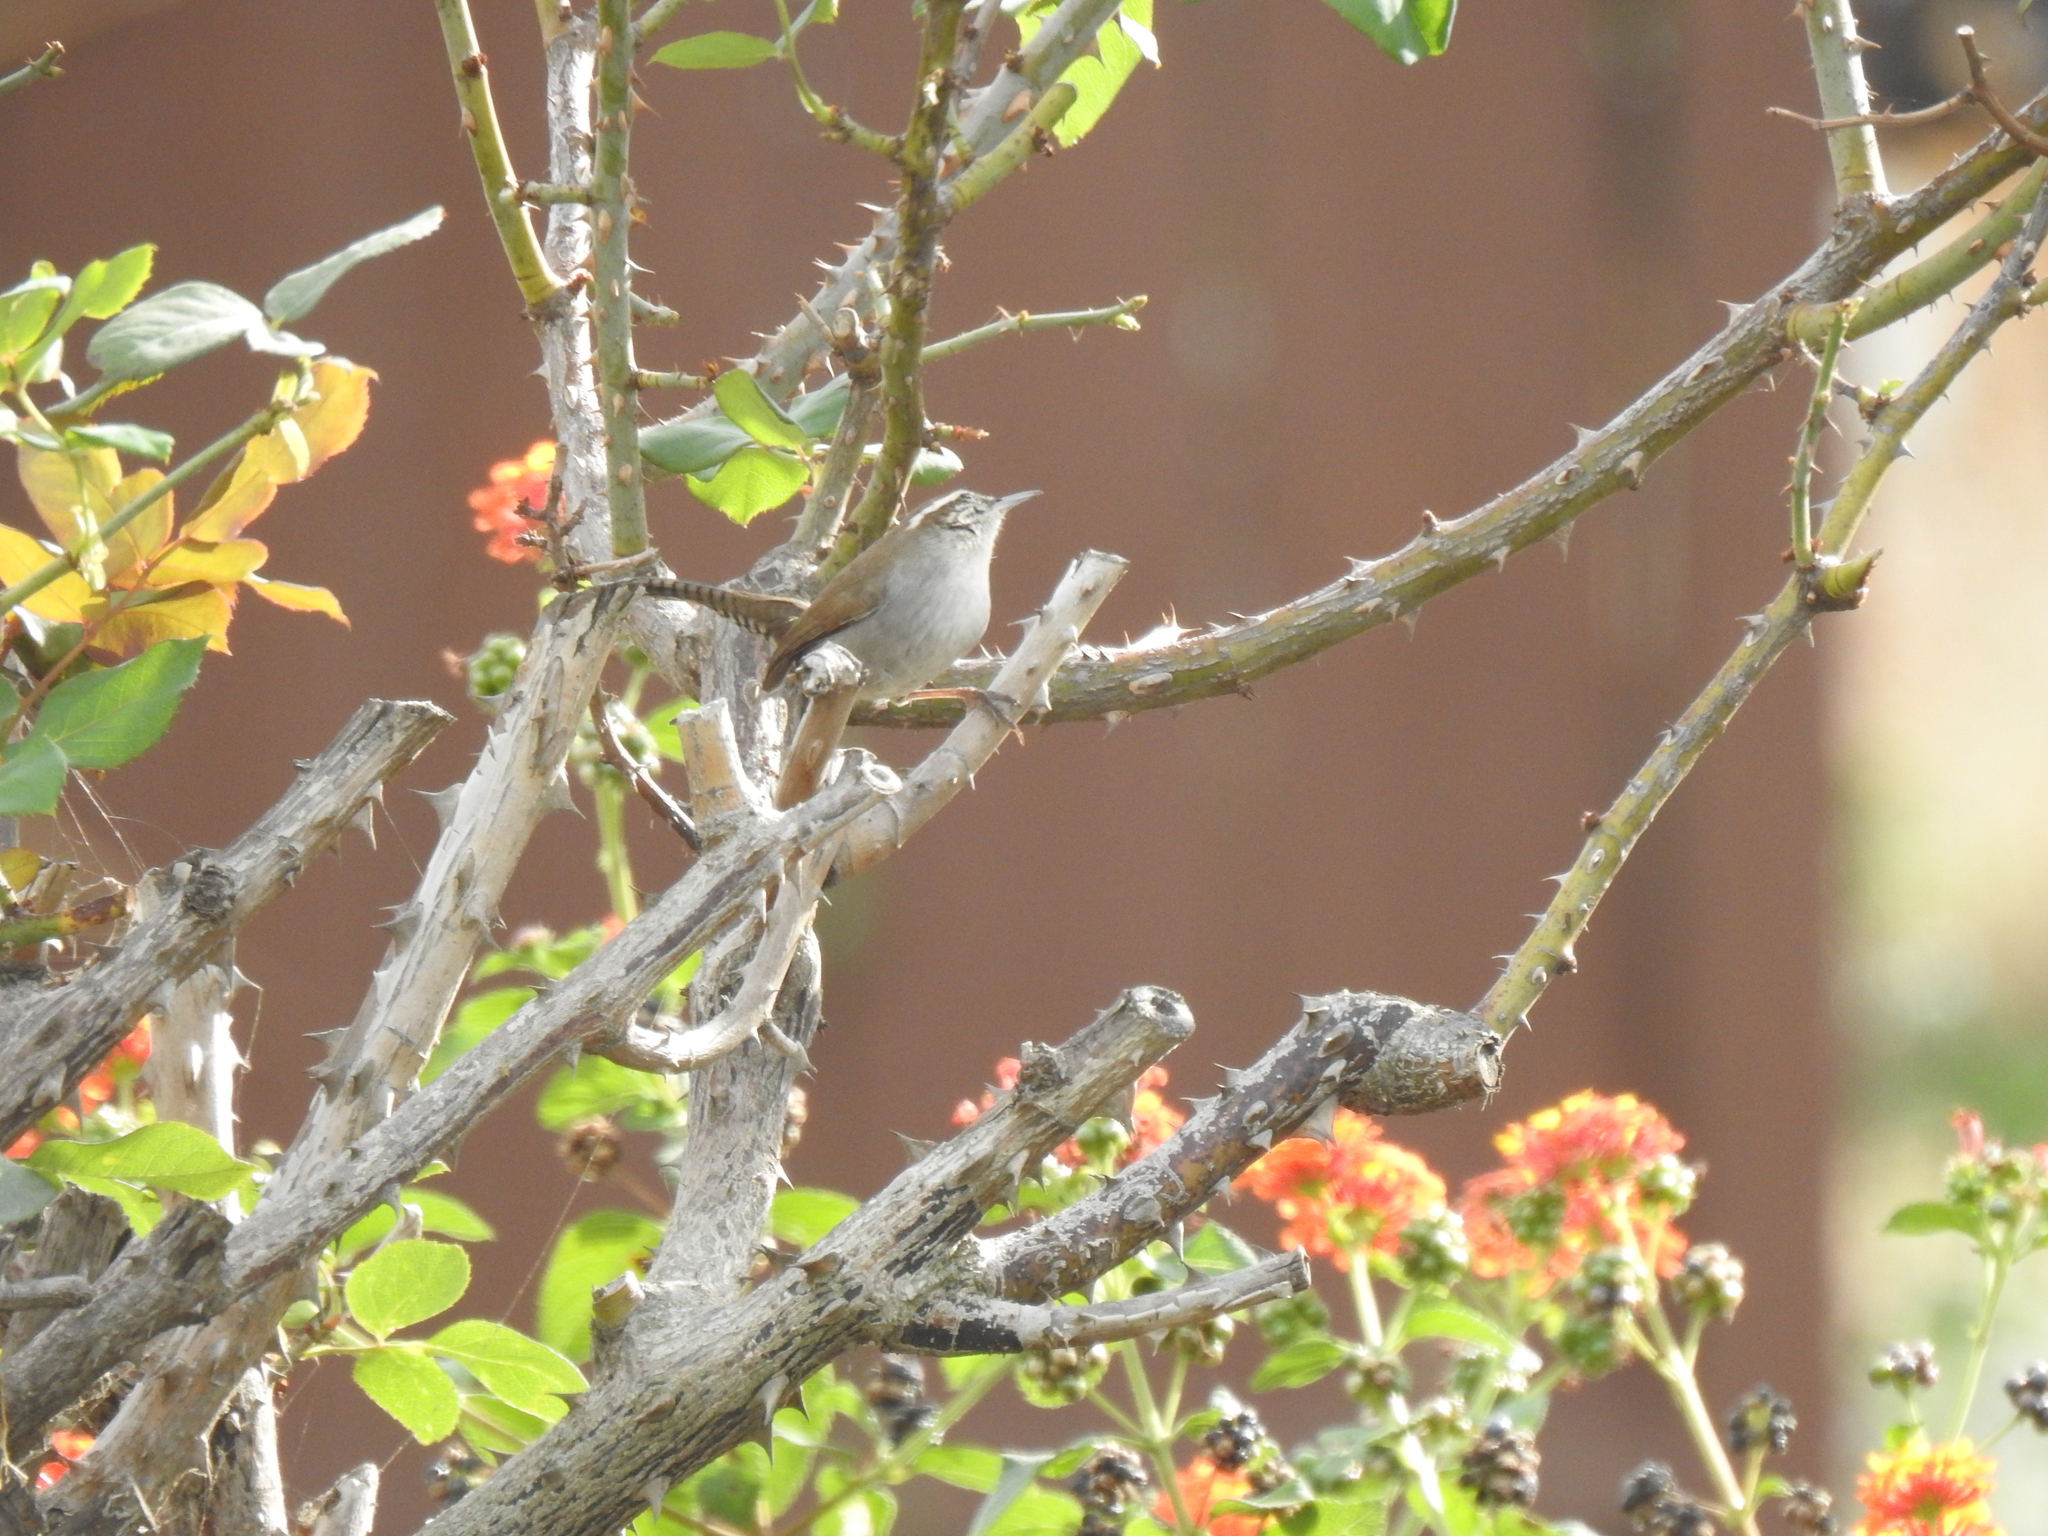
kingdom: Animalia
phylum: Chordata
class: Aves
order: Passeriformes
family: Troglodytidae
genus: Thryomanes
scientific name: Thryomanes bewickii
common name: Bewick's wren
